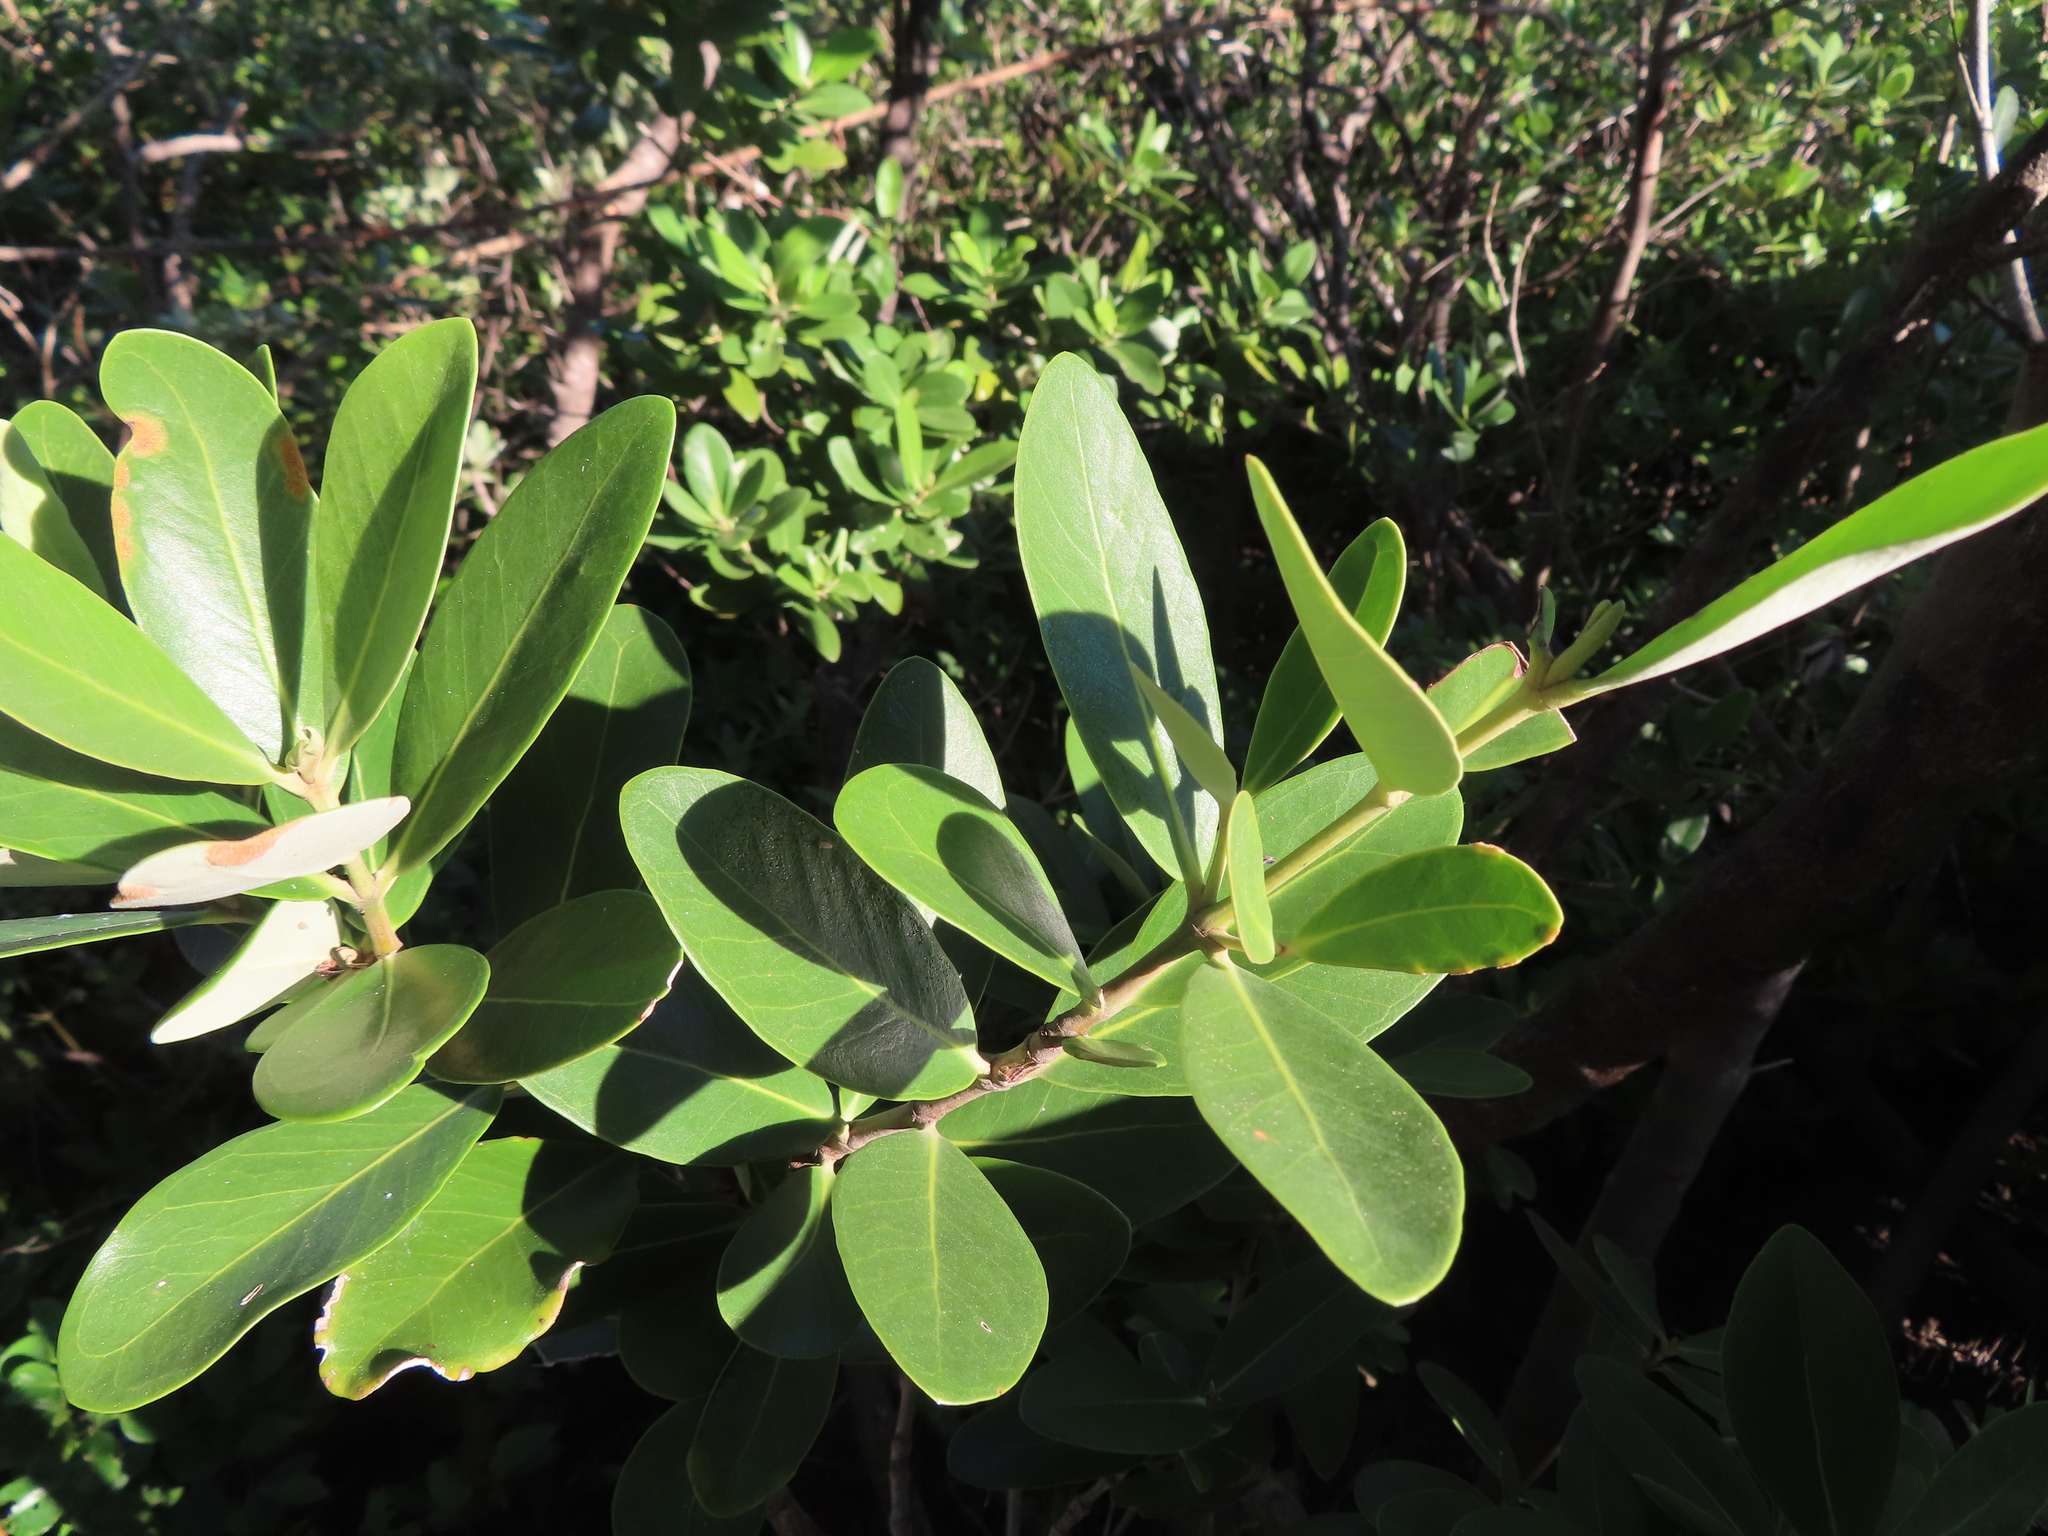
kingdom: Plantae
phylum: Tracheophyta
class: Magnoliopsida
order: Lamiales
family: Acanthaceae
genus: Avicennia
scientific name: Avicennia germinans
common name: Black mangrove
